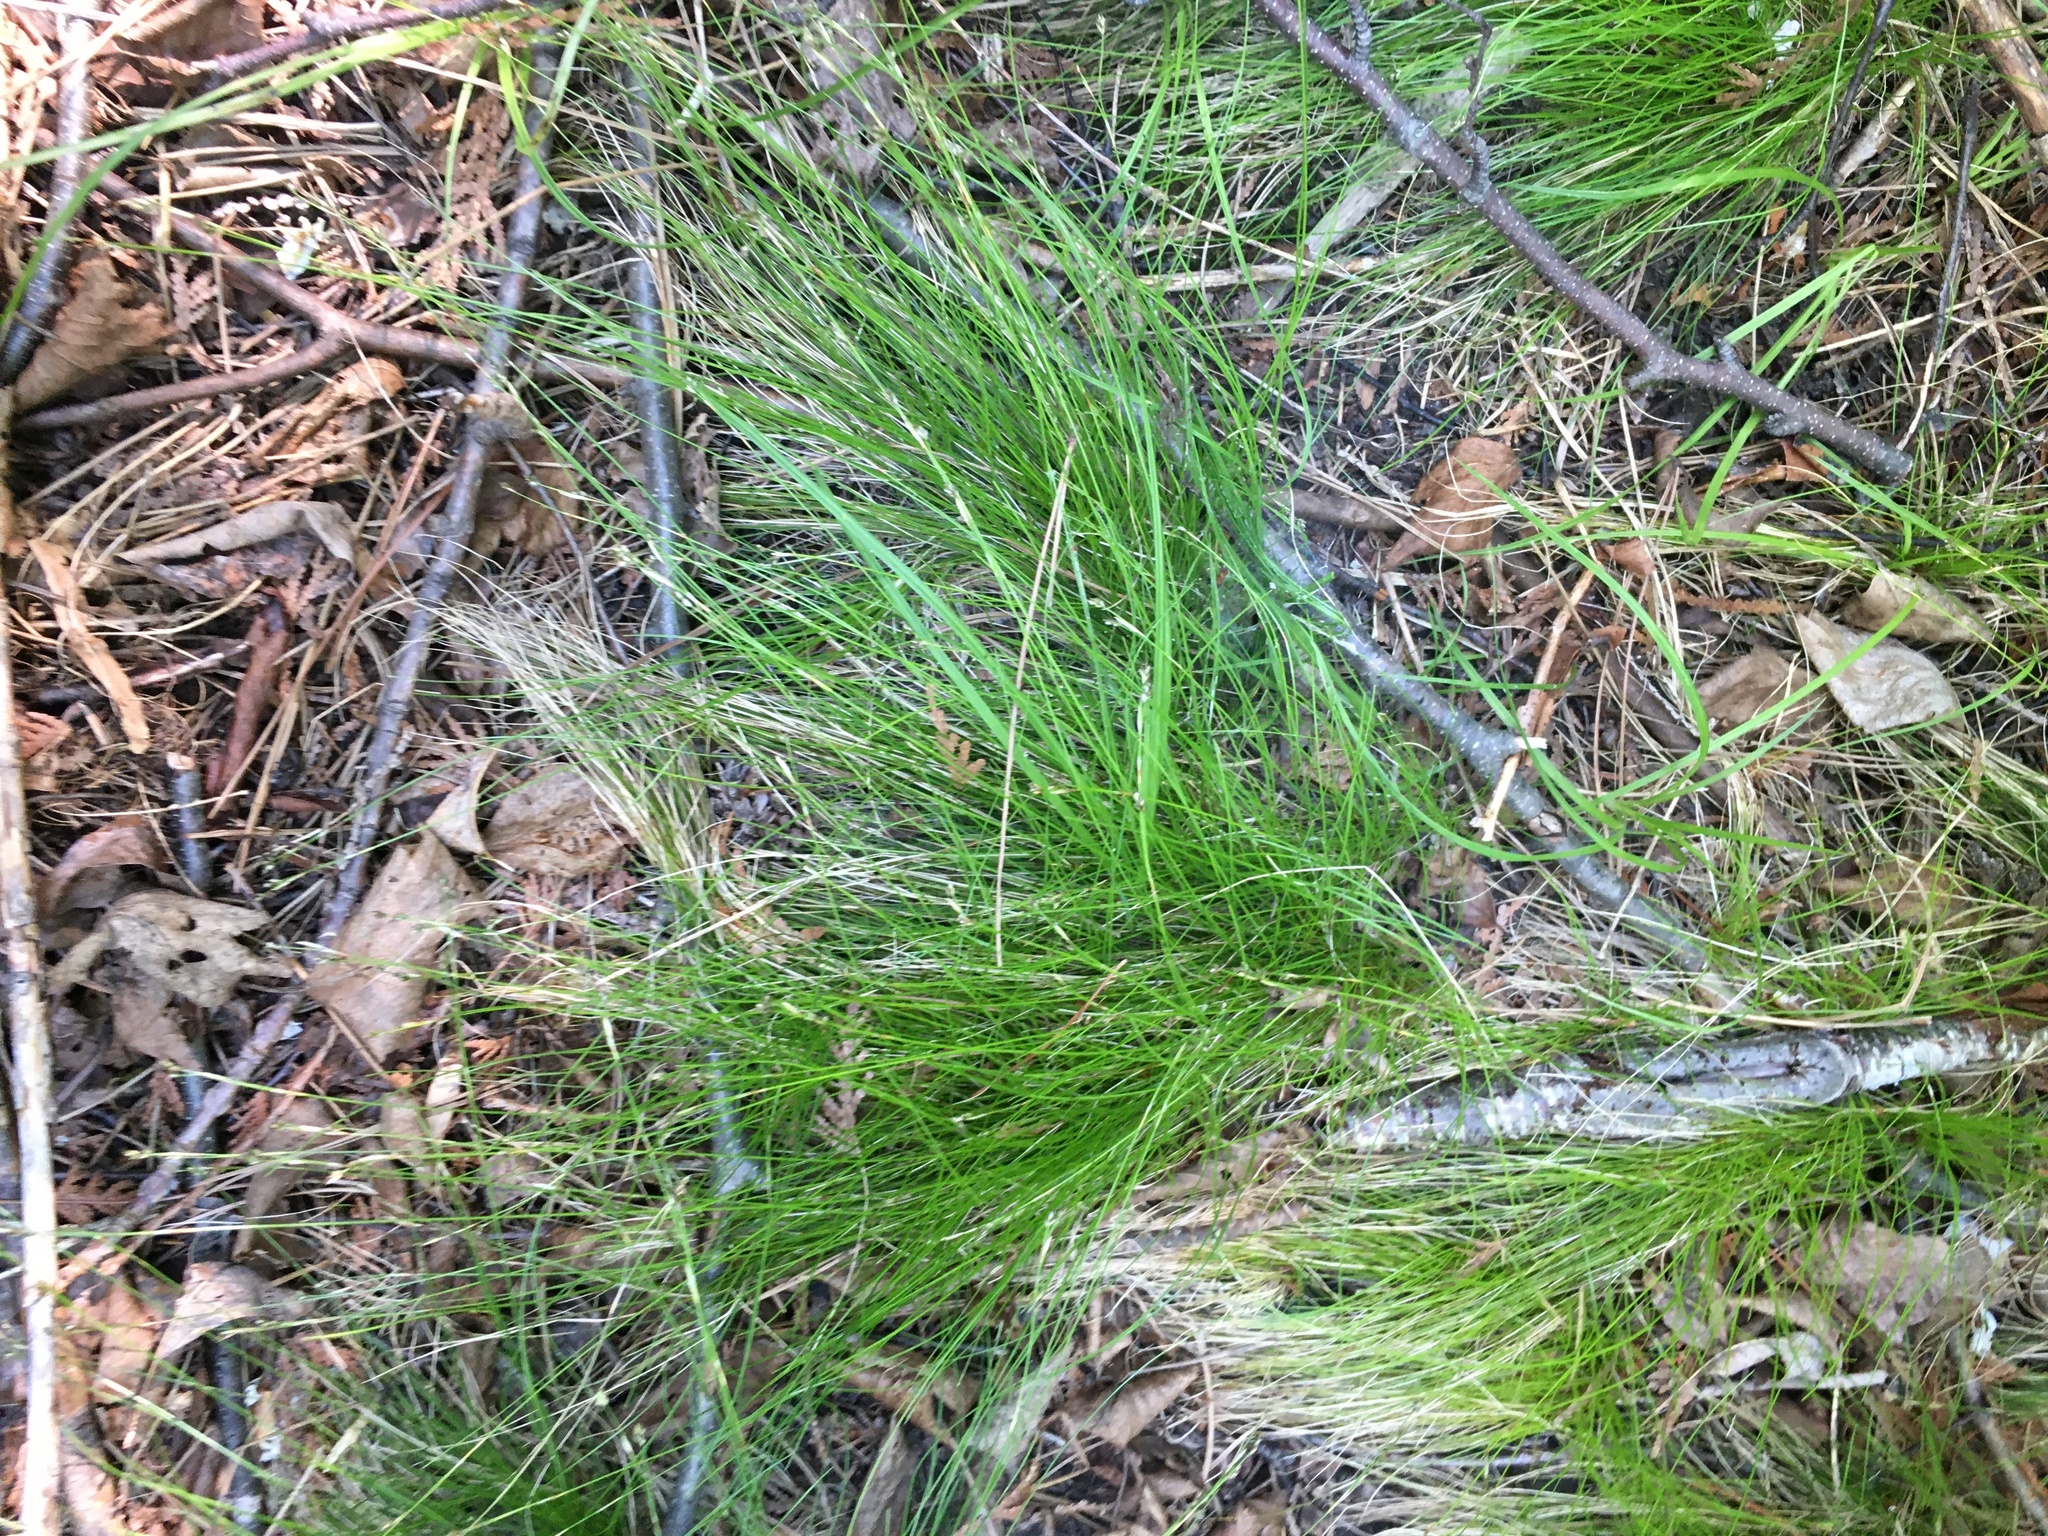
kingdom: Plantae
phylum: Tracheophyta
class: Liliopsida
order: Poales
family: Cyperaceae
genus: Carex
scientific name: Carex eburnea
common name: Bristle-leaved sedge
